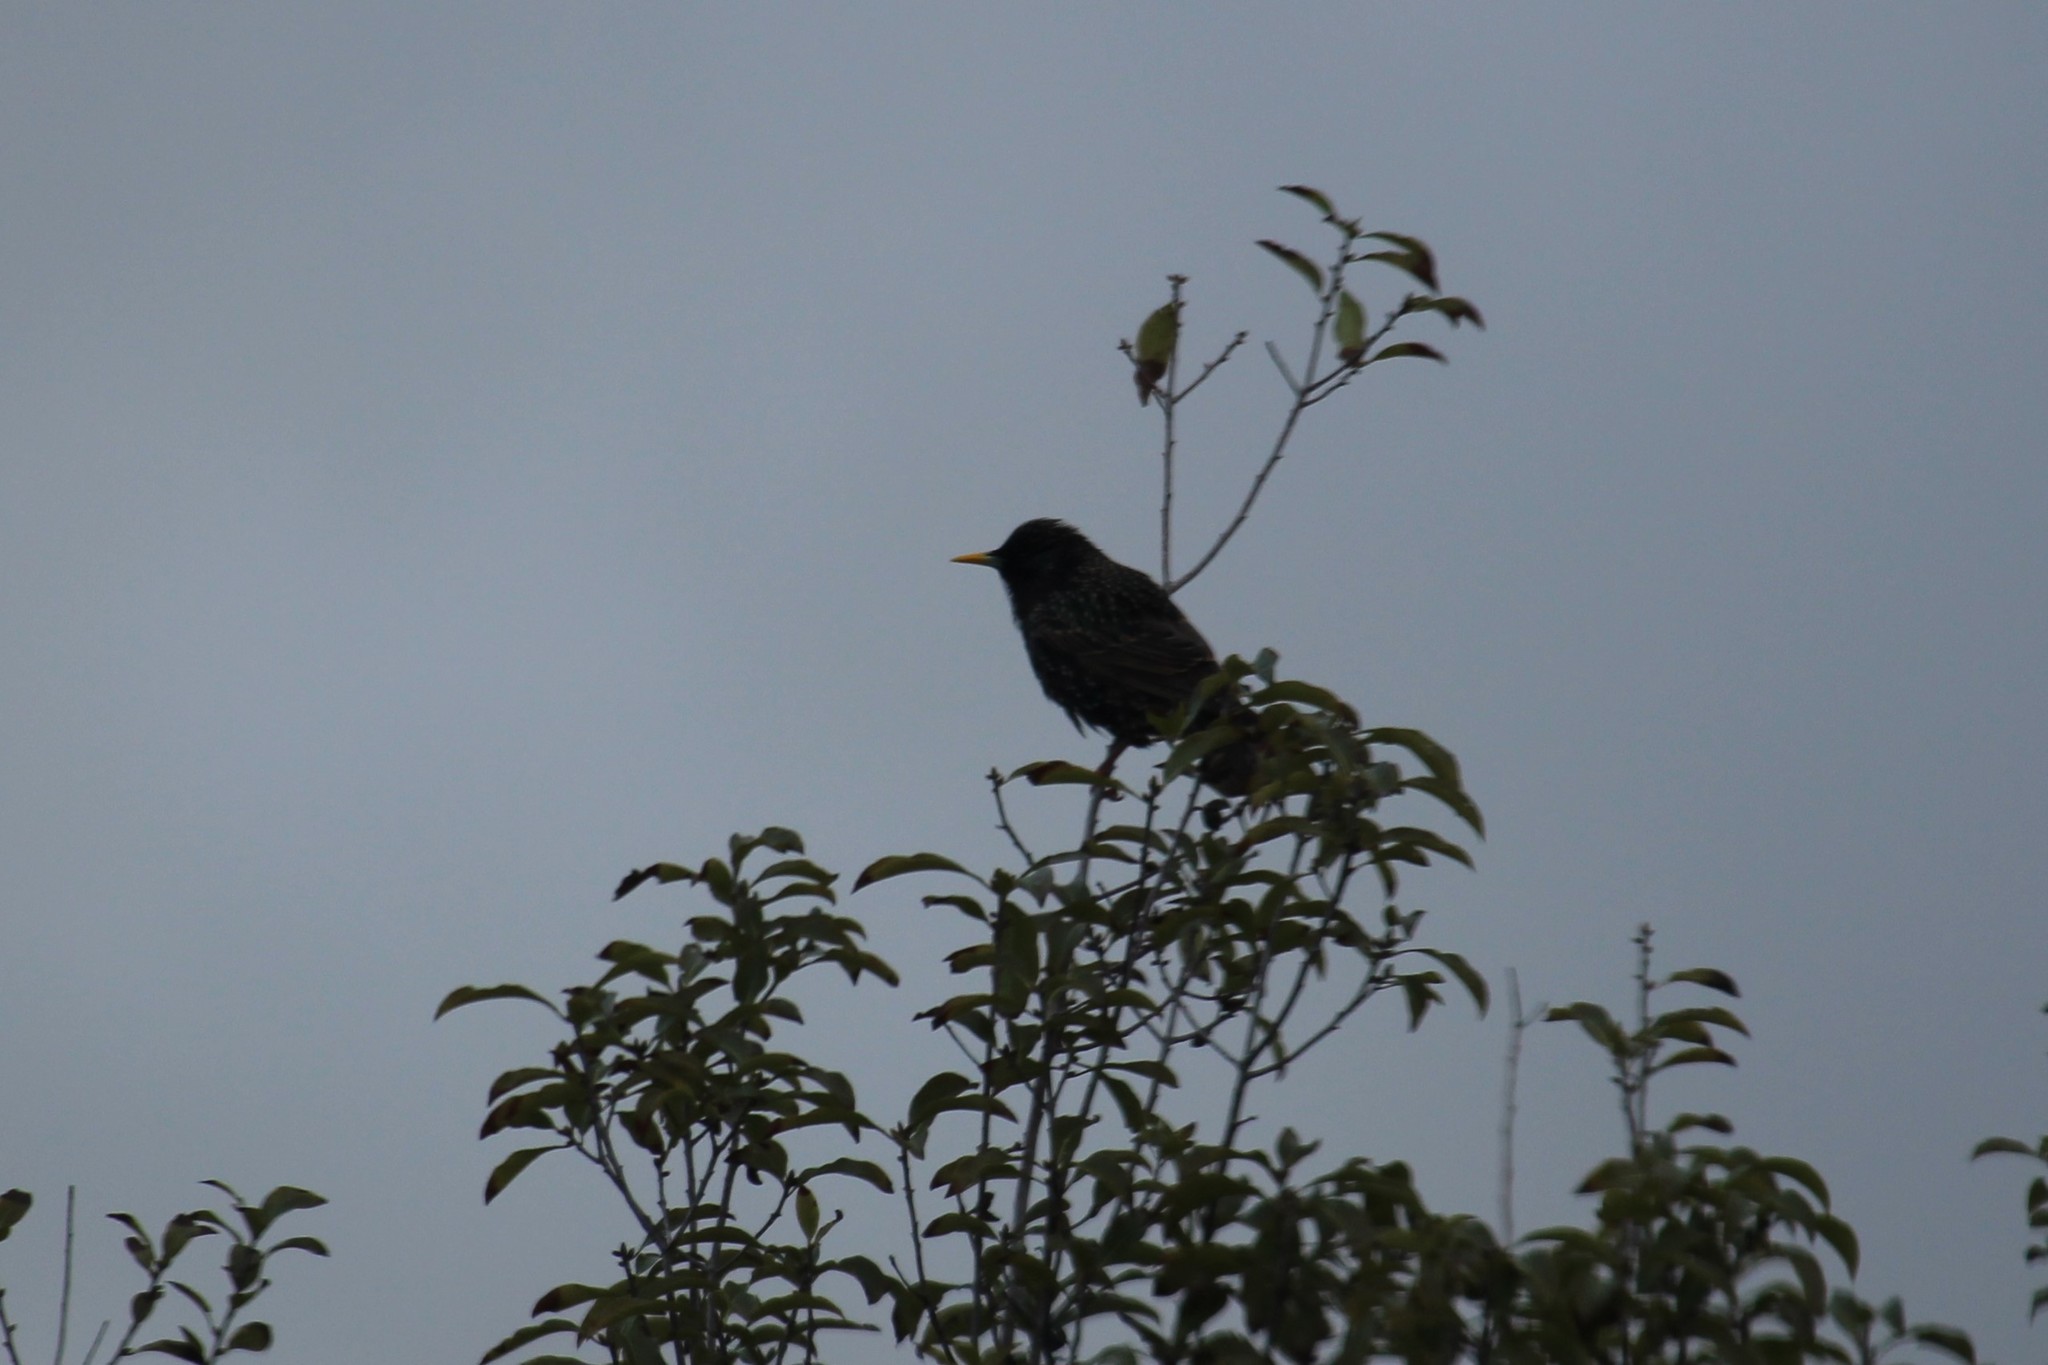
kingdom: Animalia
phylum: Chordata
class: Aves
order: Passeriformes
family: Sturnidae
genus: Sturnus
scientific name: Sturnus vulgaris
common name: Common starling
